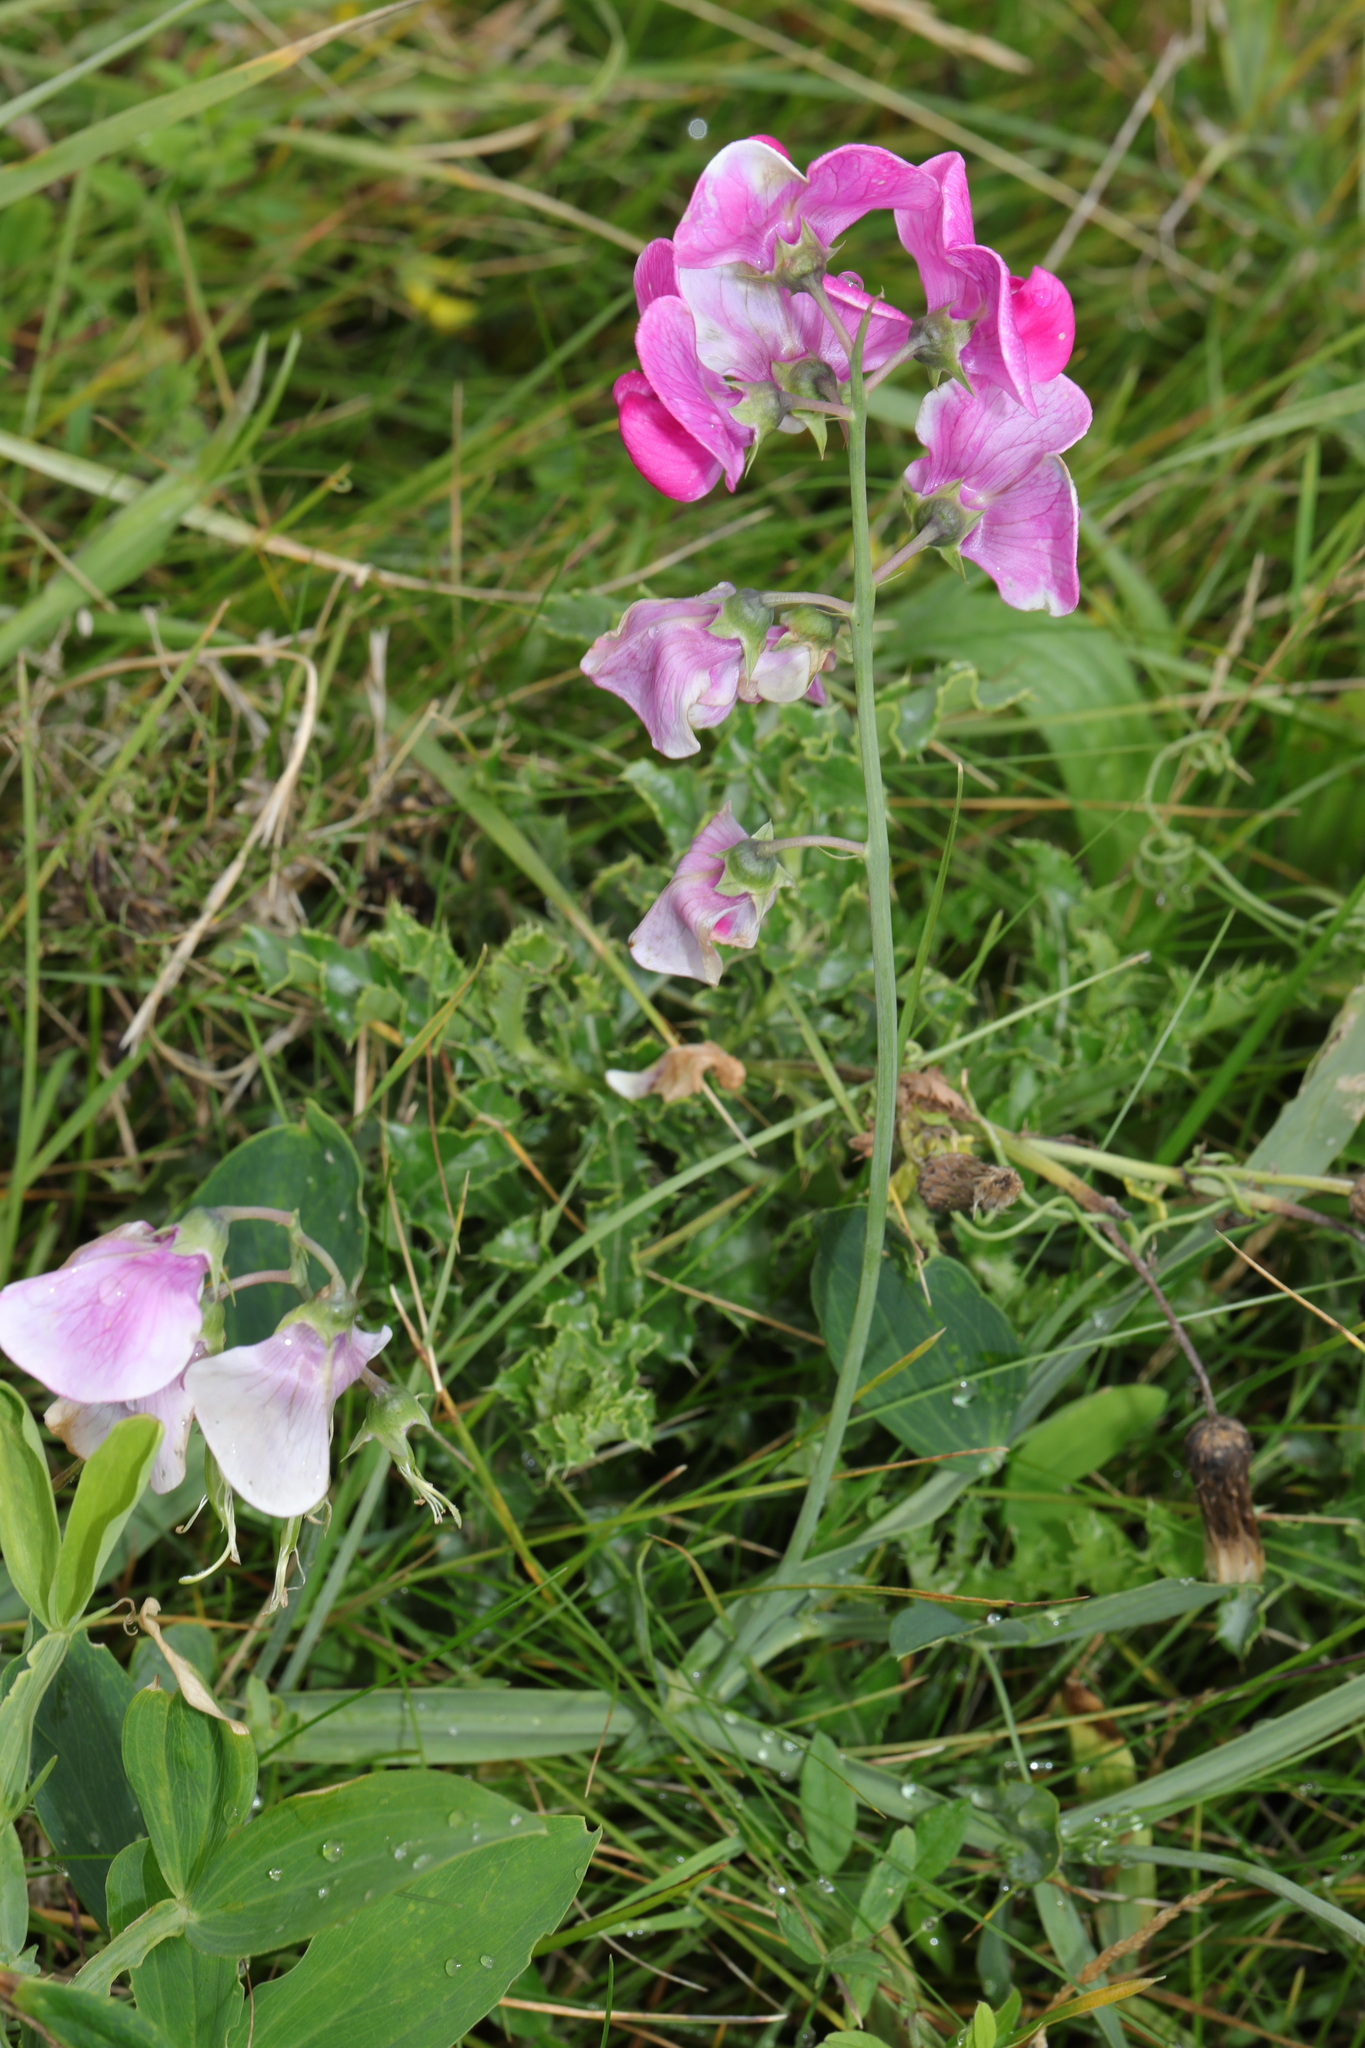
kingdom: Plantae
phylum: Tracheophyta
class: Magnoliopsida
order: Fabales
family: Fabaceae
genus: Lathyrus
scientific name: Lathyrus latifolius
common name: Perennial pea
